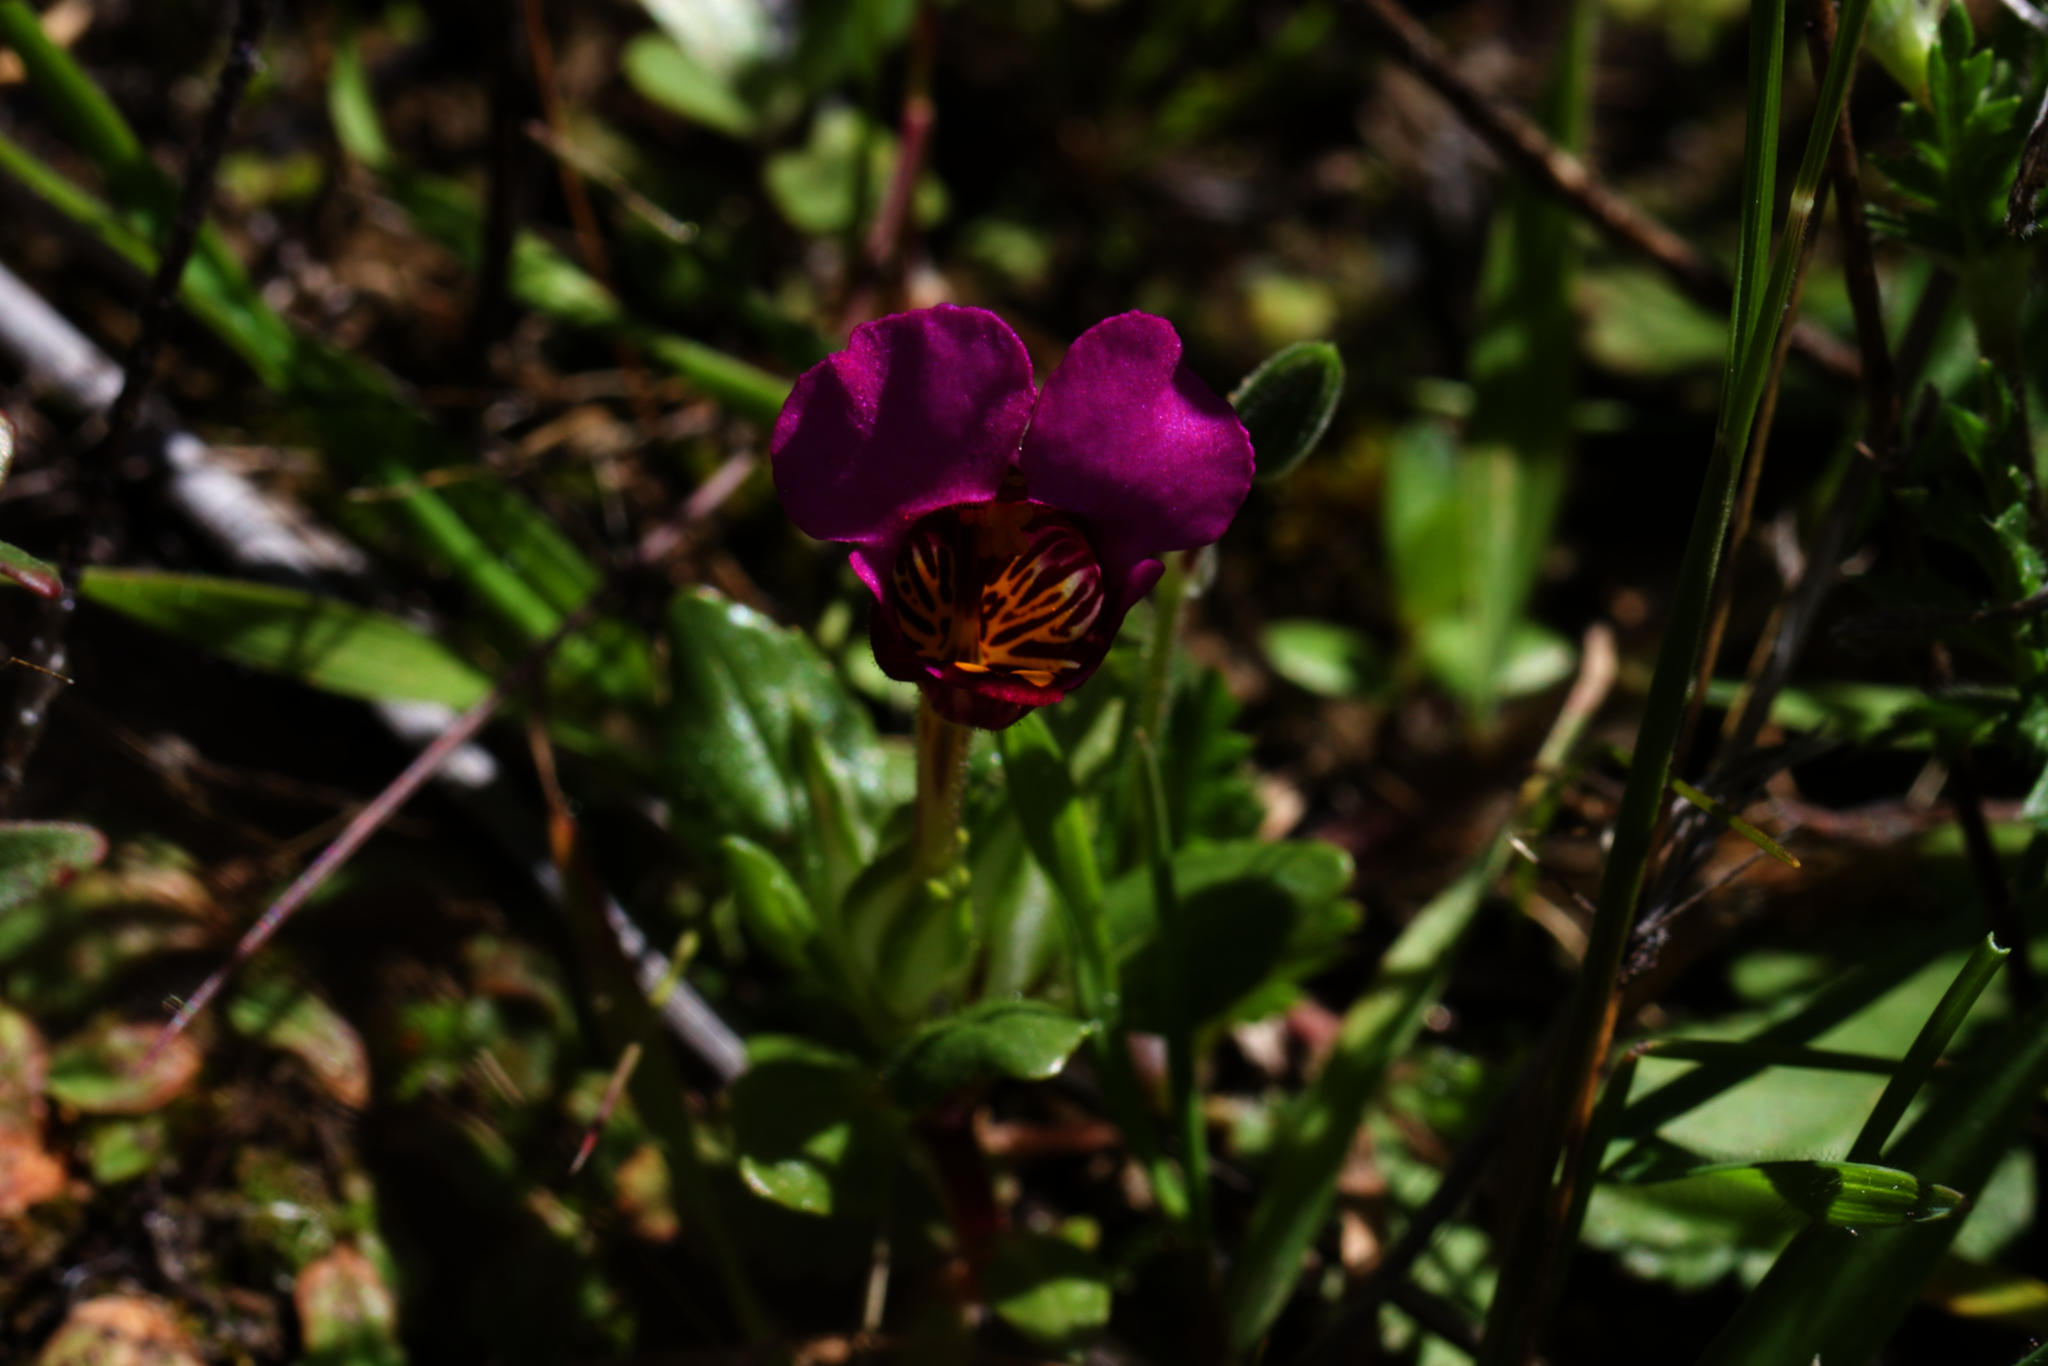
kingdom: Plantae
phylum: Tracheophyta
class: Magnoliopsida
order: Lamiales
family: Phrymaceae
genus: Diplacus
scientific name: Diplacus douglasii
